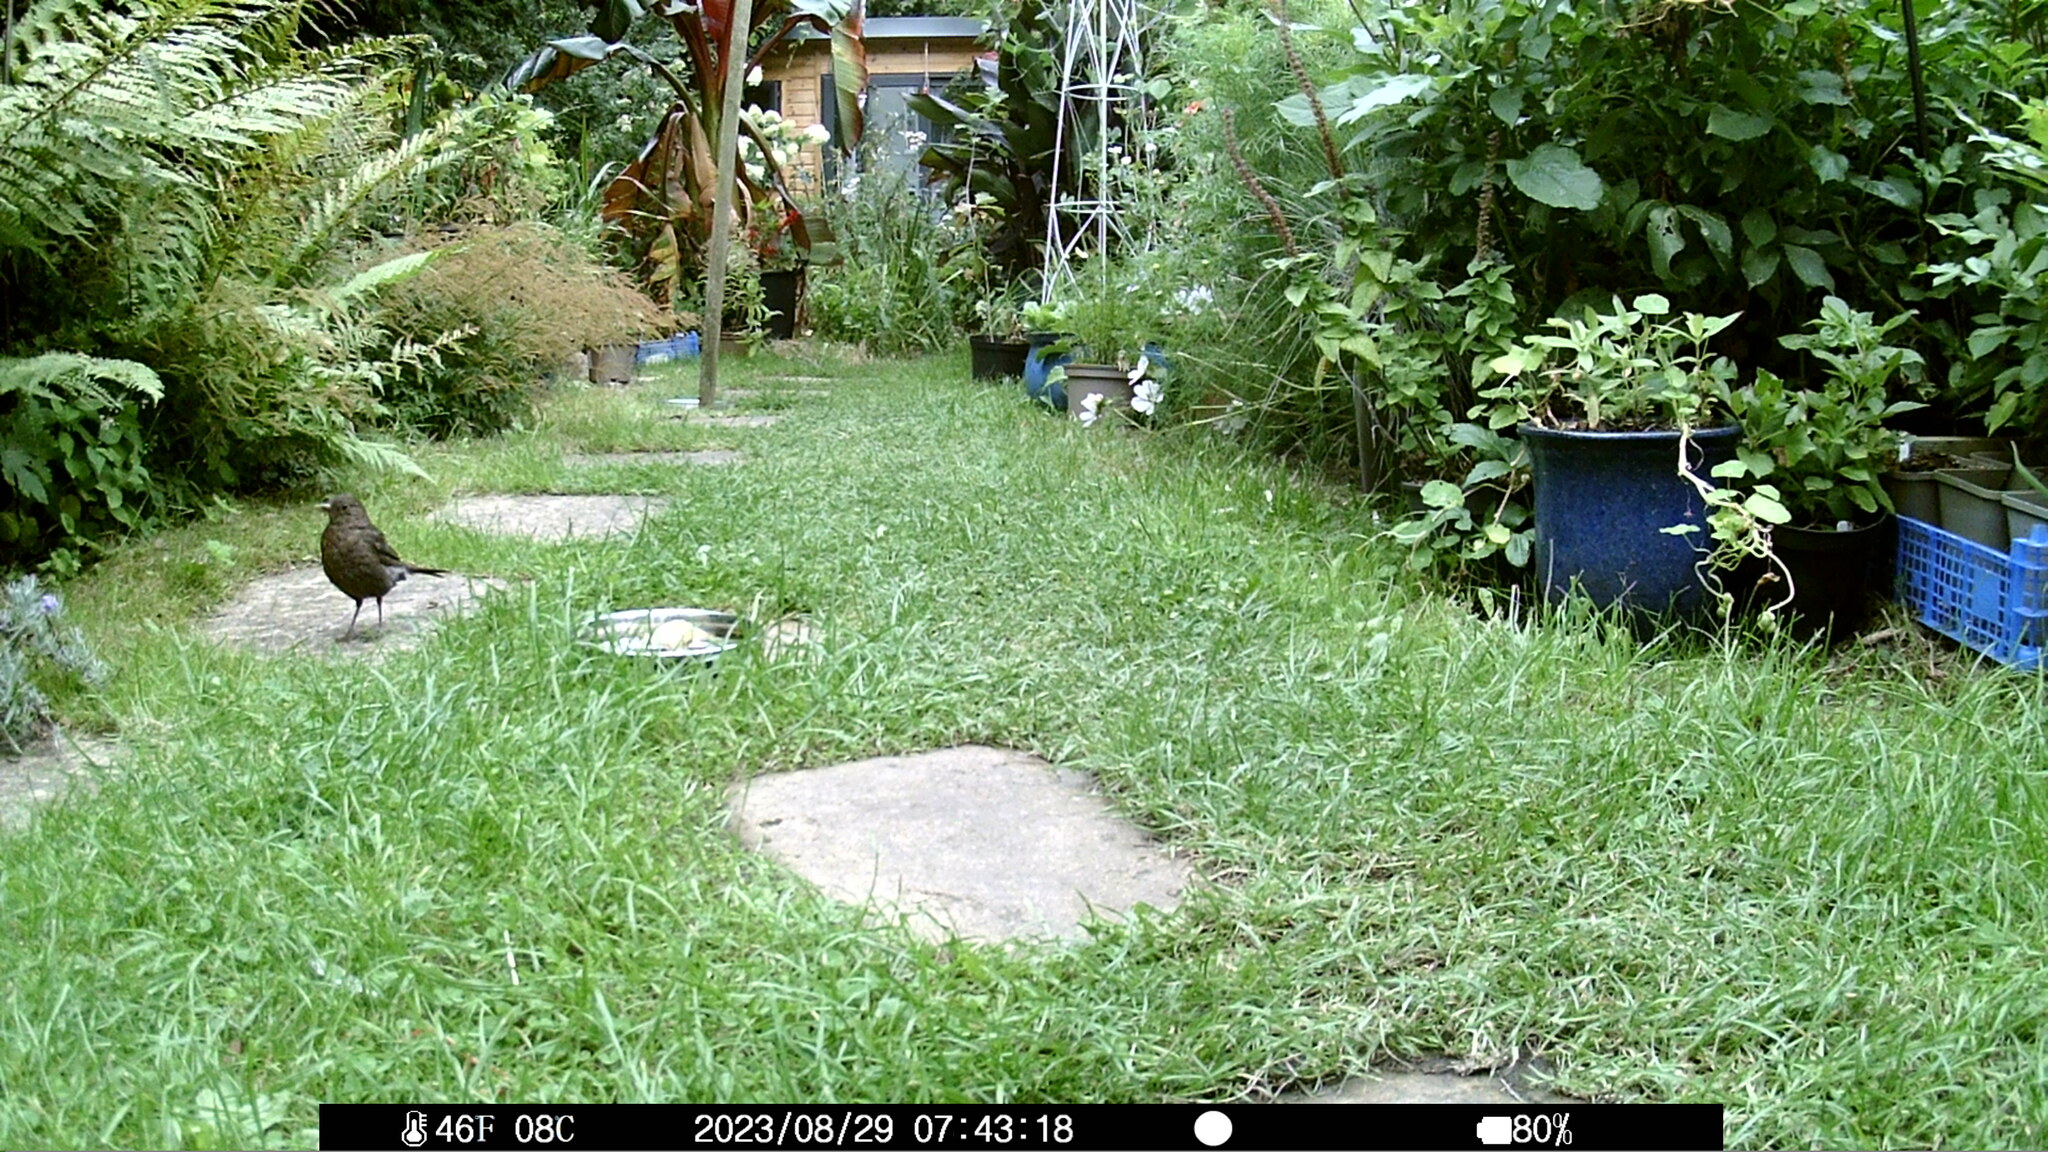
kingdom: Animalia
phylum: Chordata
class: Aves
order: Passeriformes
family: Turdidae
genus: Turdus
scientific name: Turdus merula
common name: Common blackbird
